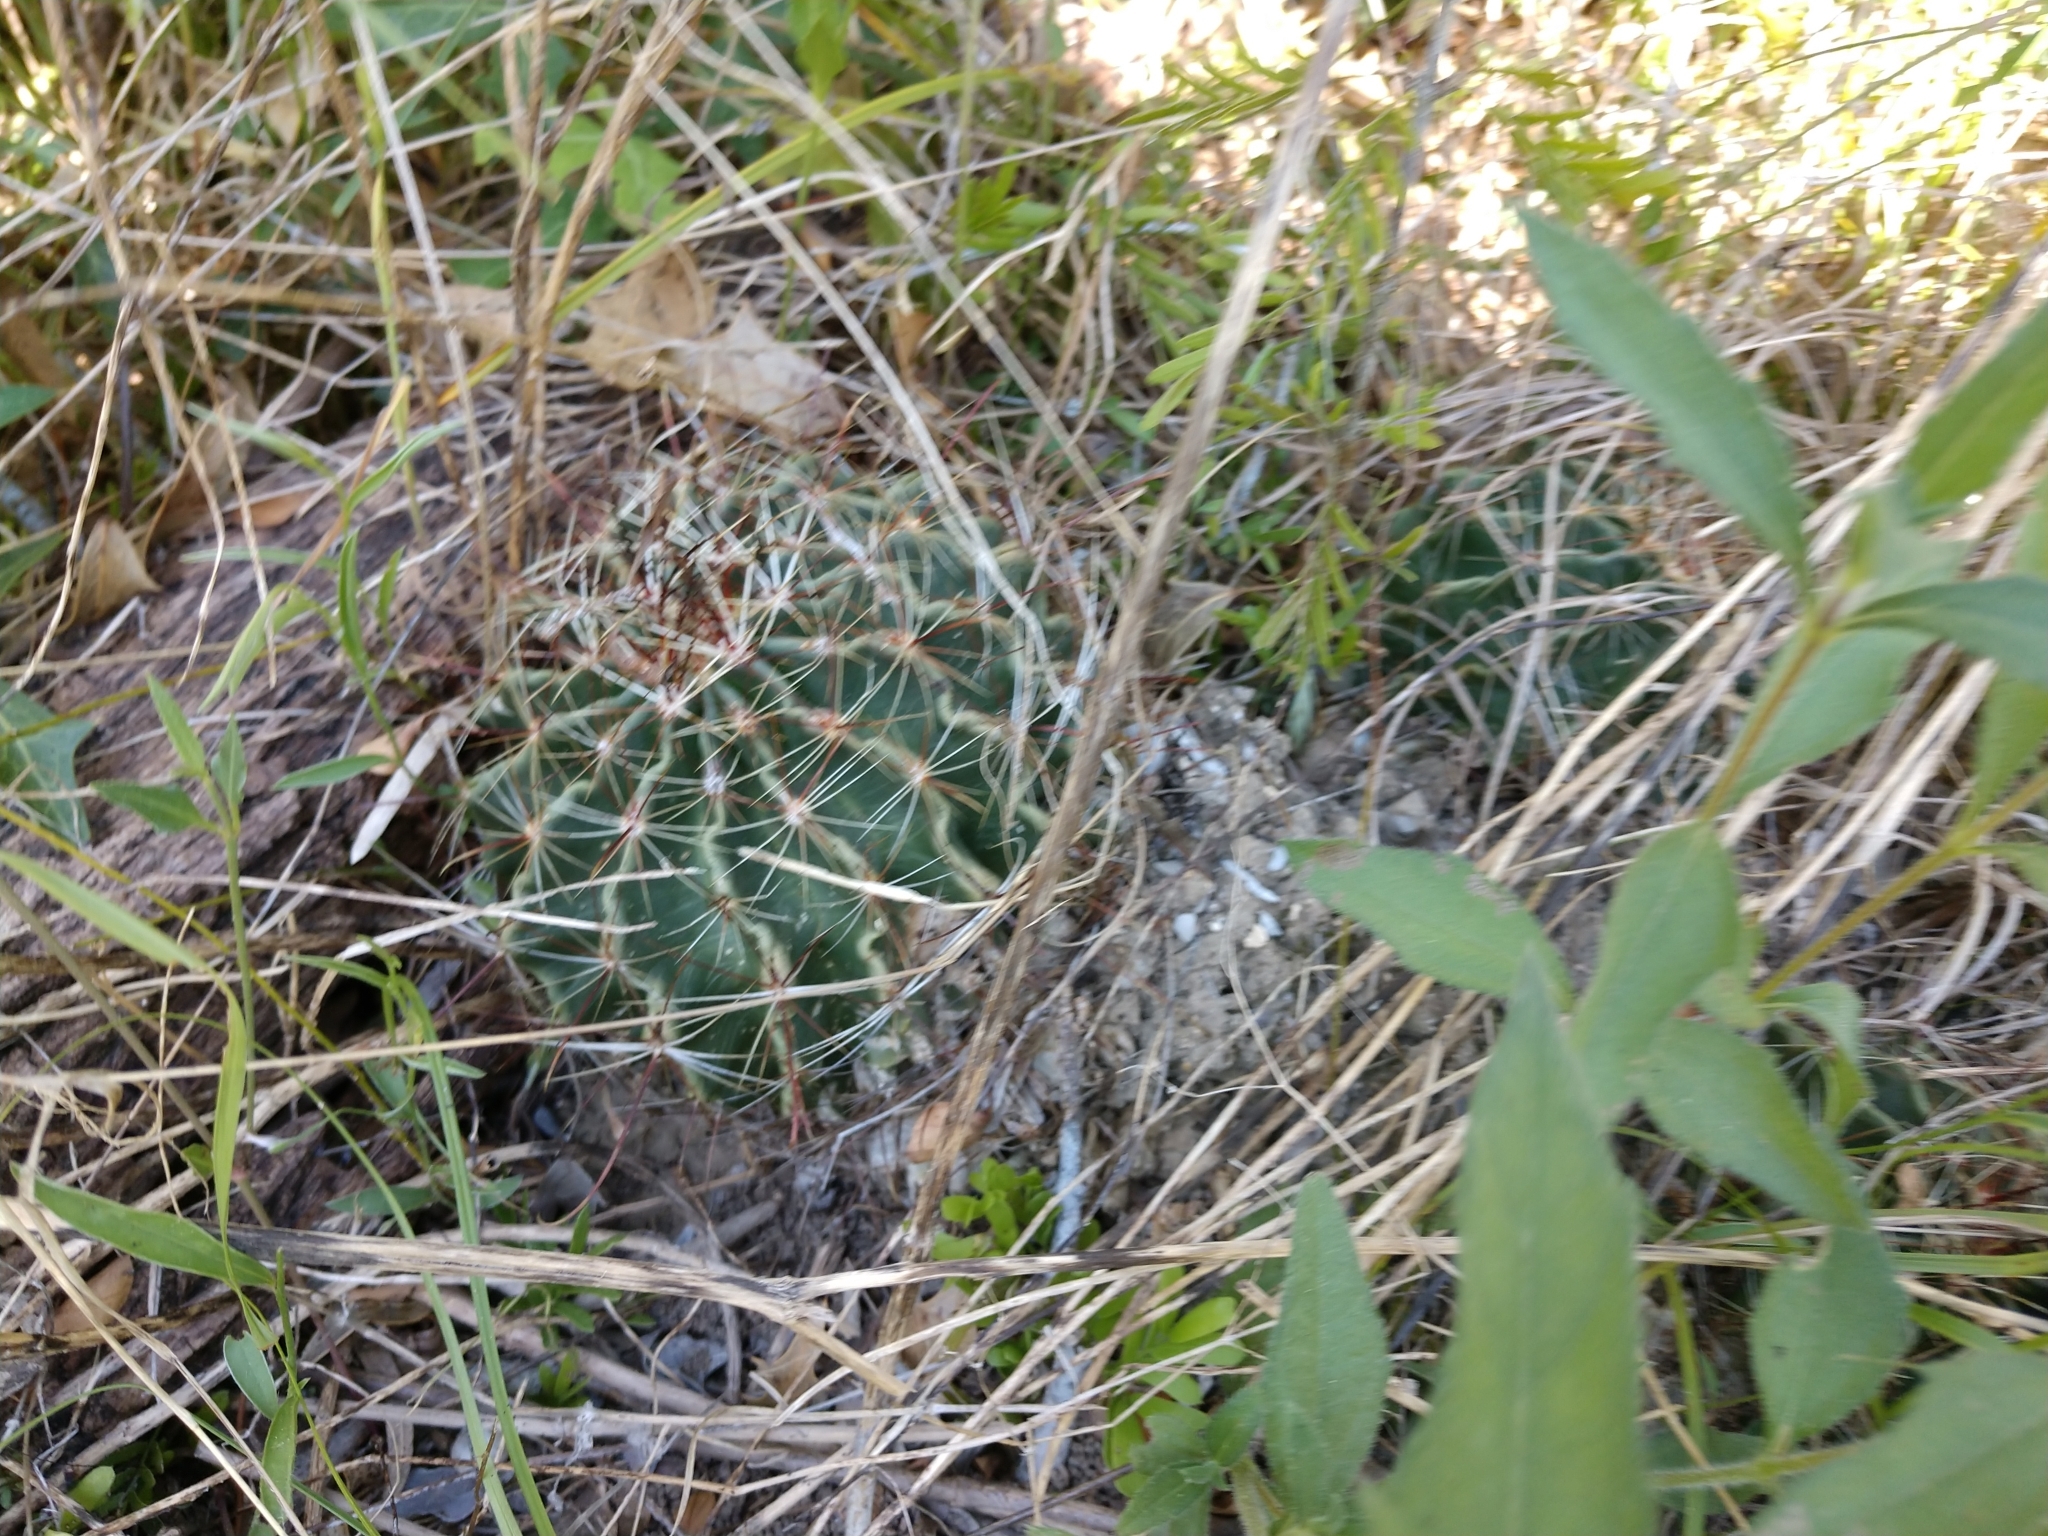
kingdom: Plantae
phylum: Tracheophyta
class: Magnoliopsida
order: Caryophyllales
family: Cactaceae
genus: Thelocactus
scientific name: Thelocactus setispinus
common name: Miniature barrel cactus
